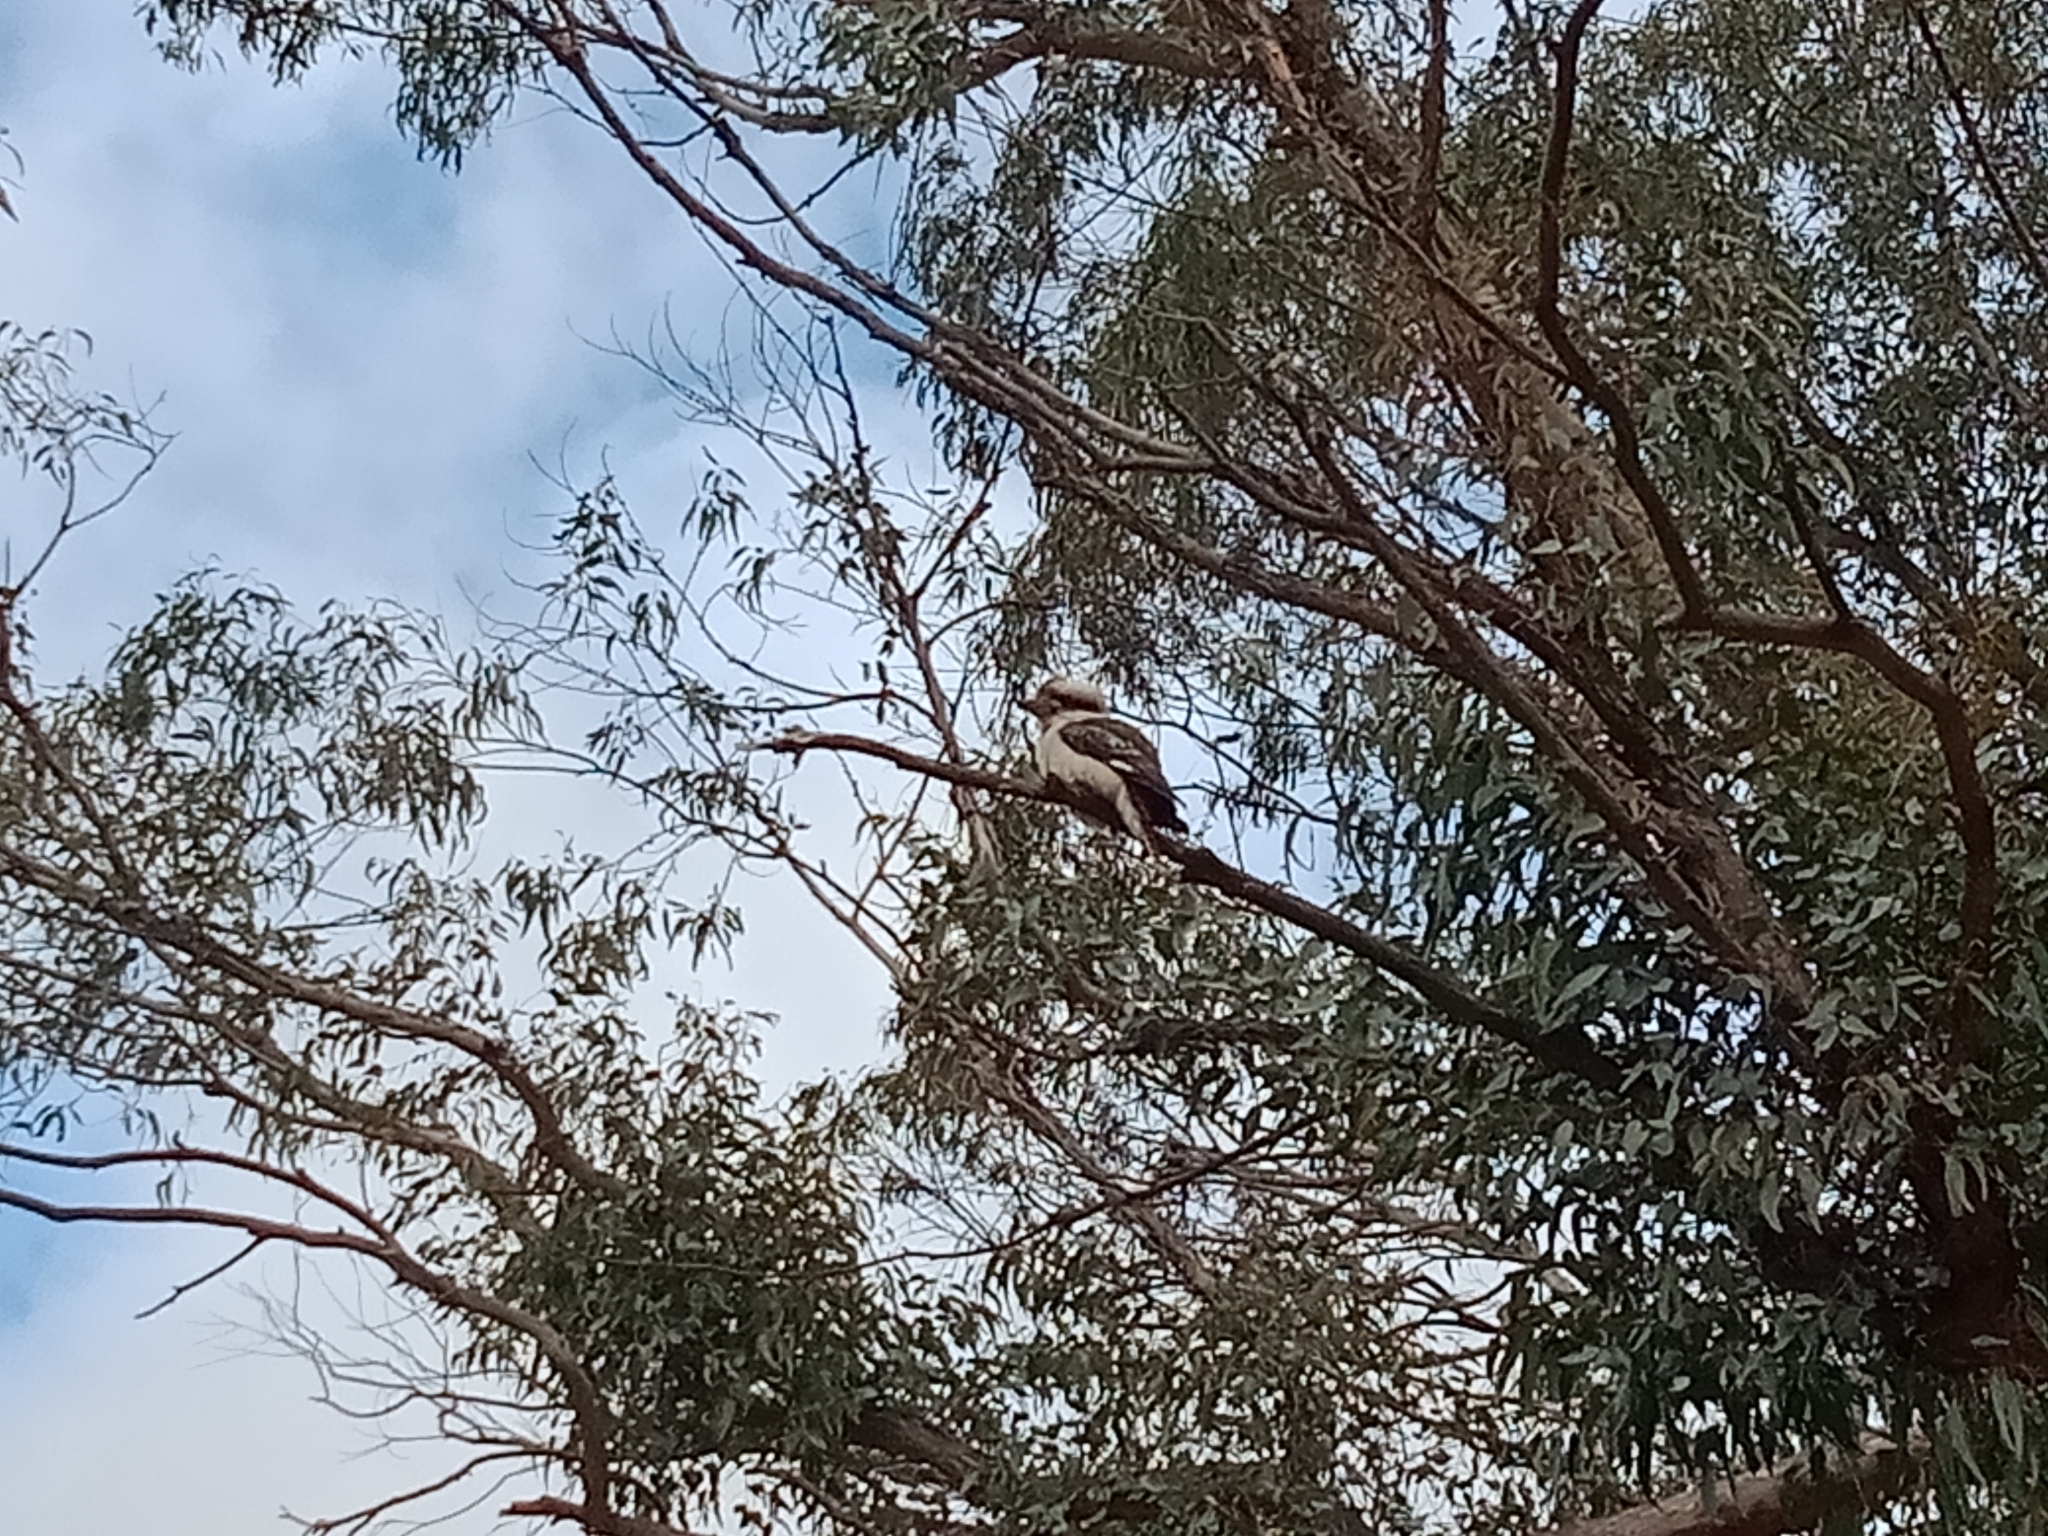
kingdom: Animalia
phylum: Chordata
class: Aves
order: Coraciiformes
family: Alcedinidae
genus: Dacelo
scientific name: Dacelo novaeguineae
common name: Laughing kookaburra
